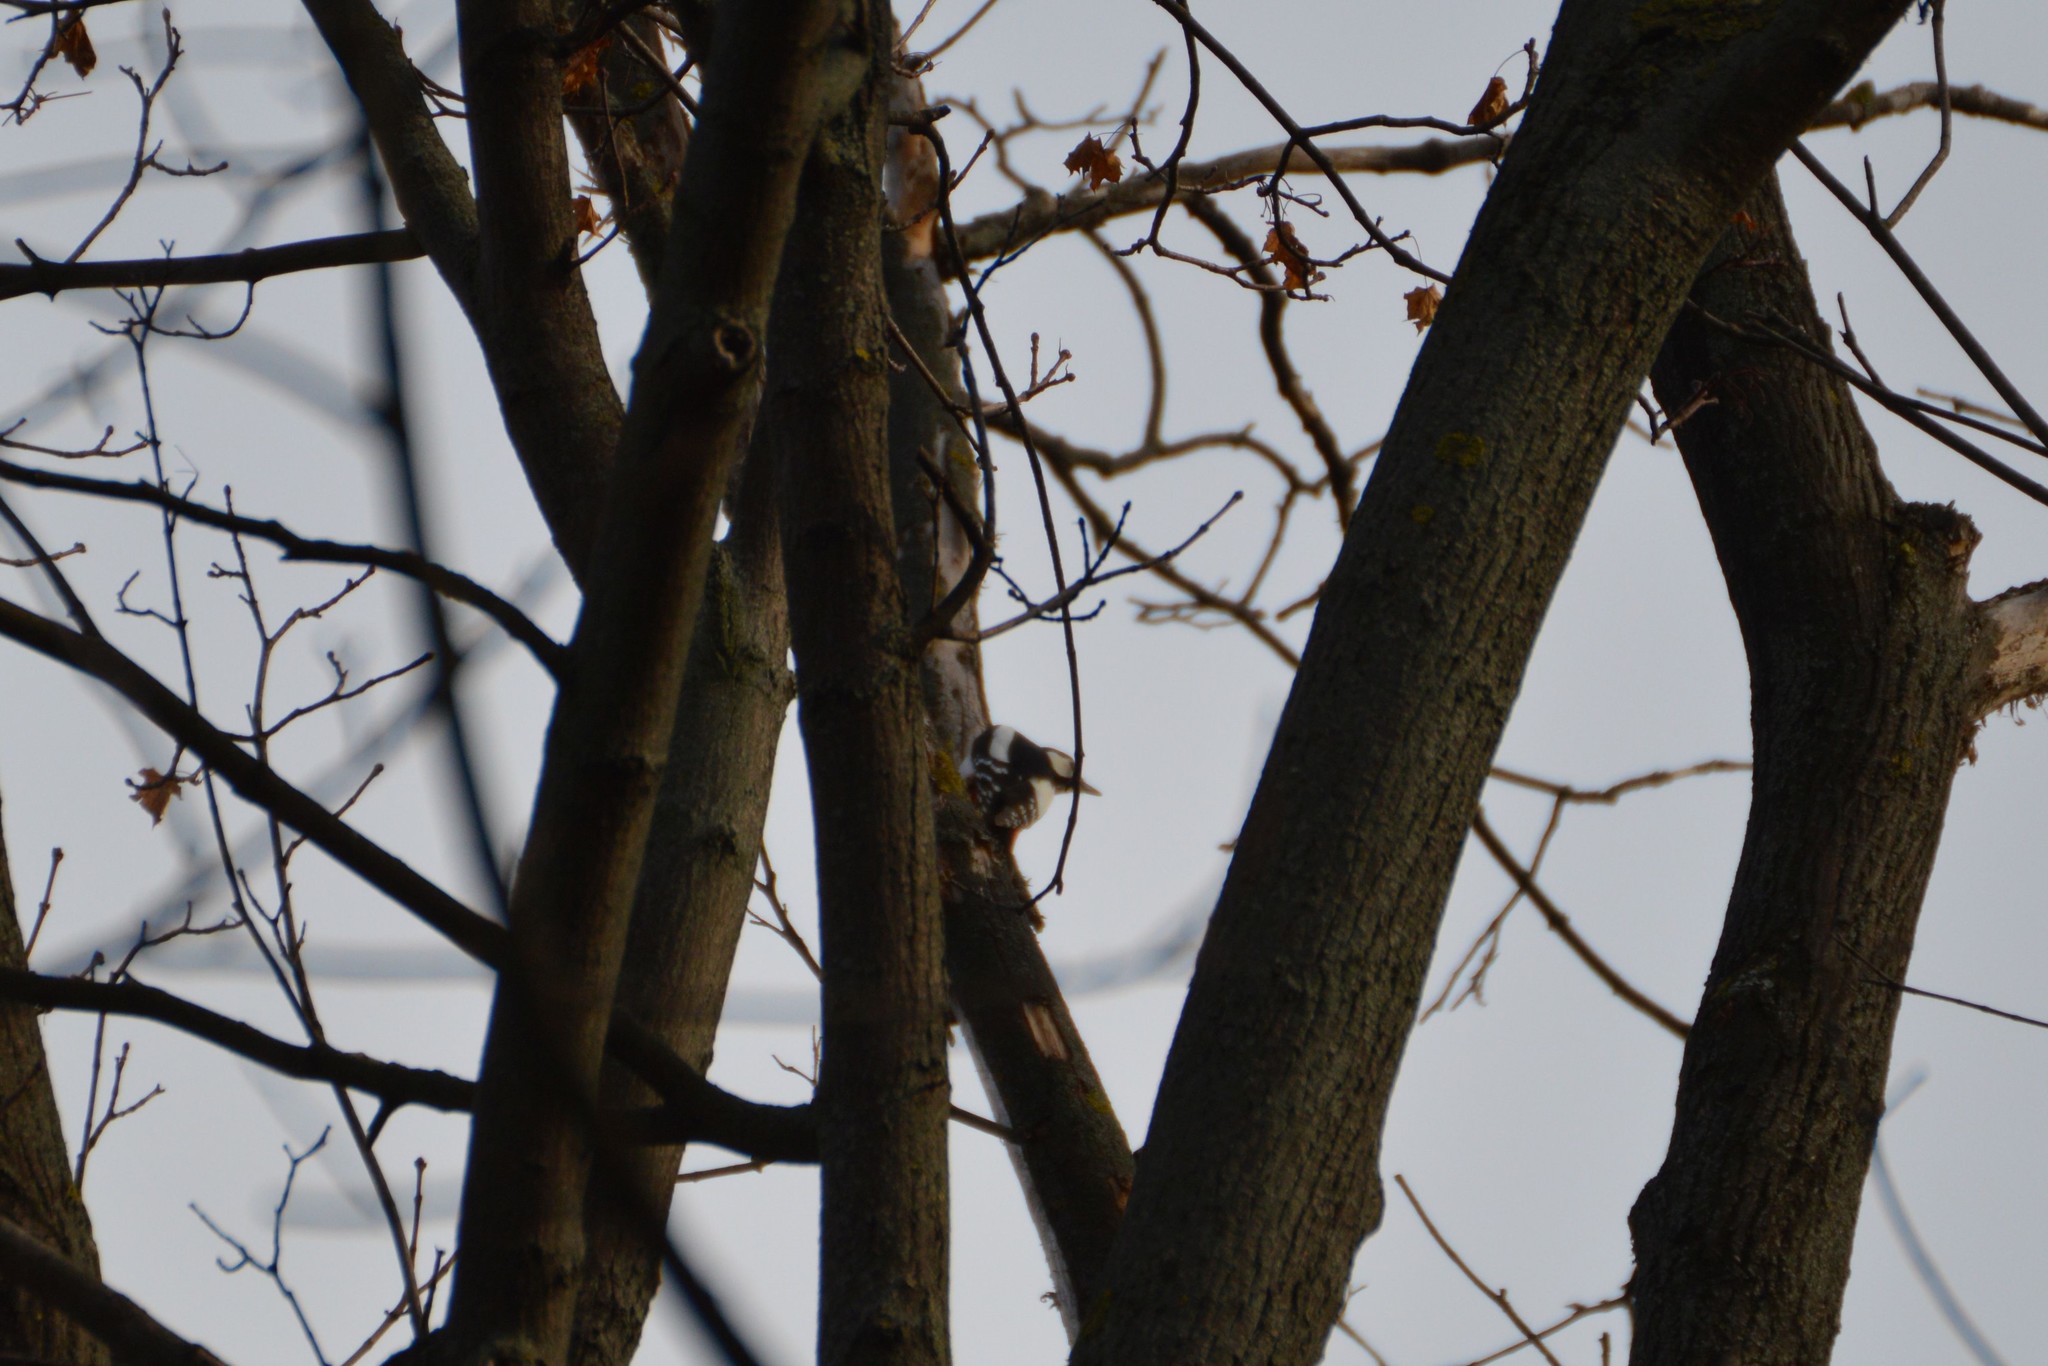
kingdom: Animalia
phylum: Chordata
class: Aves
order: Piciformes
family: Picidae
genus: Dendrocopos
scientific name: Dendrocopos major
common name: Great spotted woodpecker
